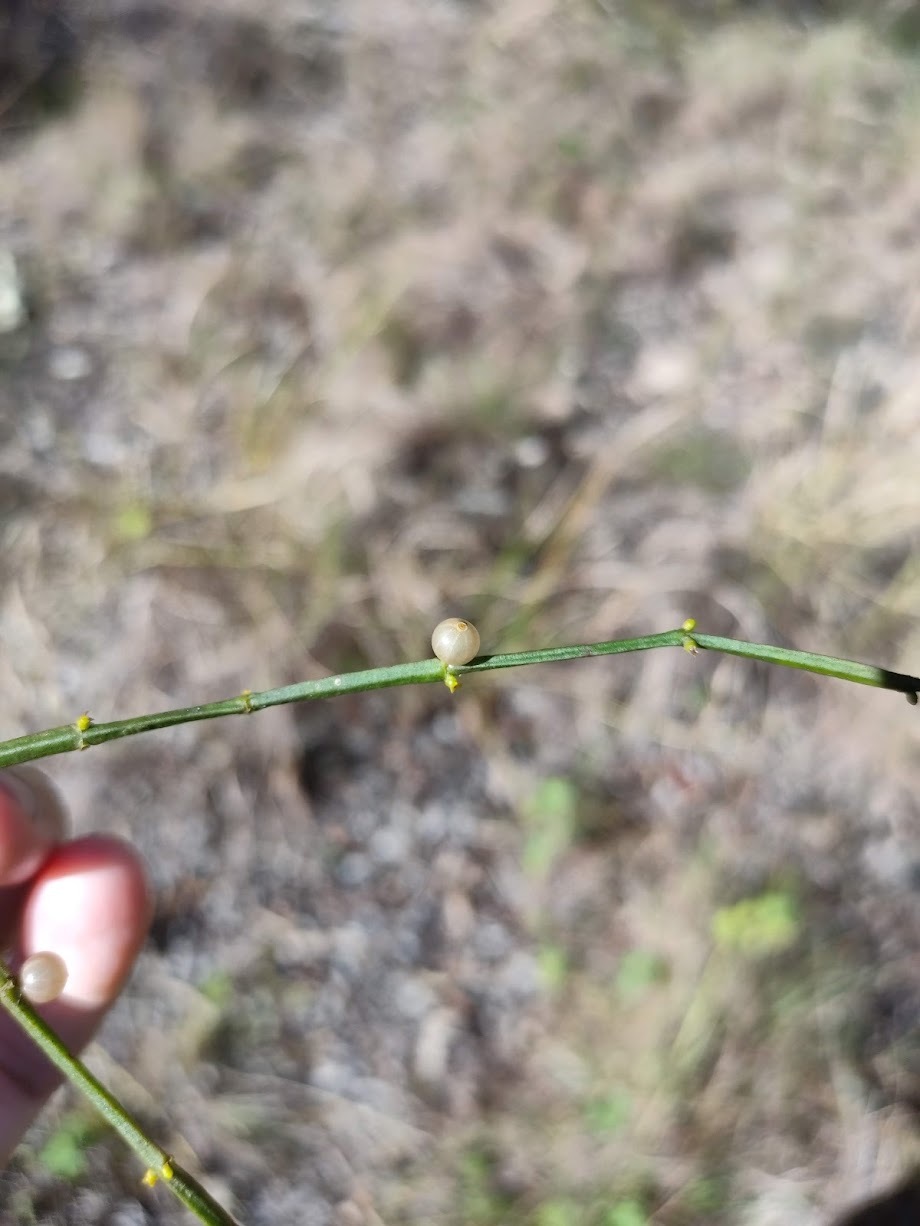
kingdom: Plantae
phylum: Tracheophyta
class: Magnoliopsida
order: Santalales
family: Viscaceae
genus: Viscum
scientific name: Viscum articulatum
